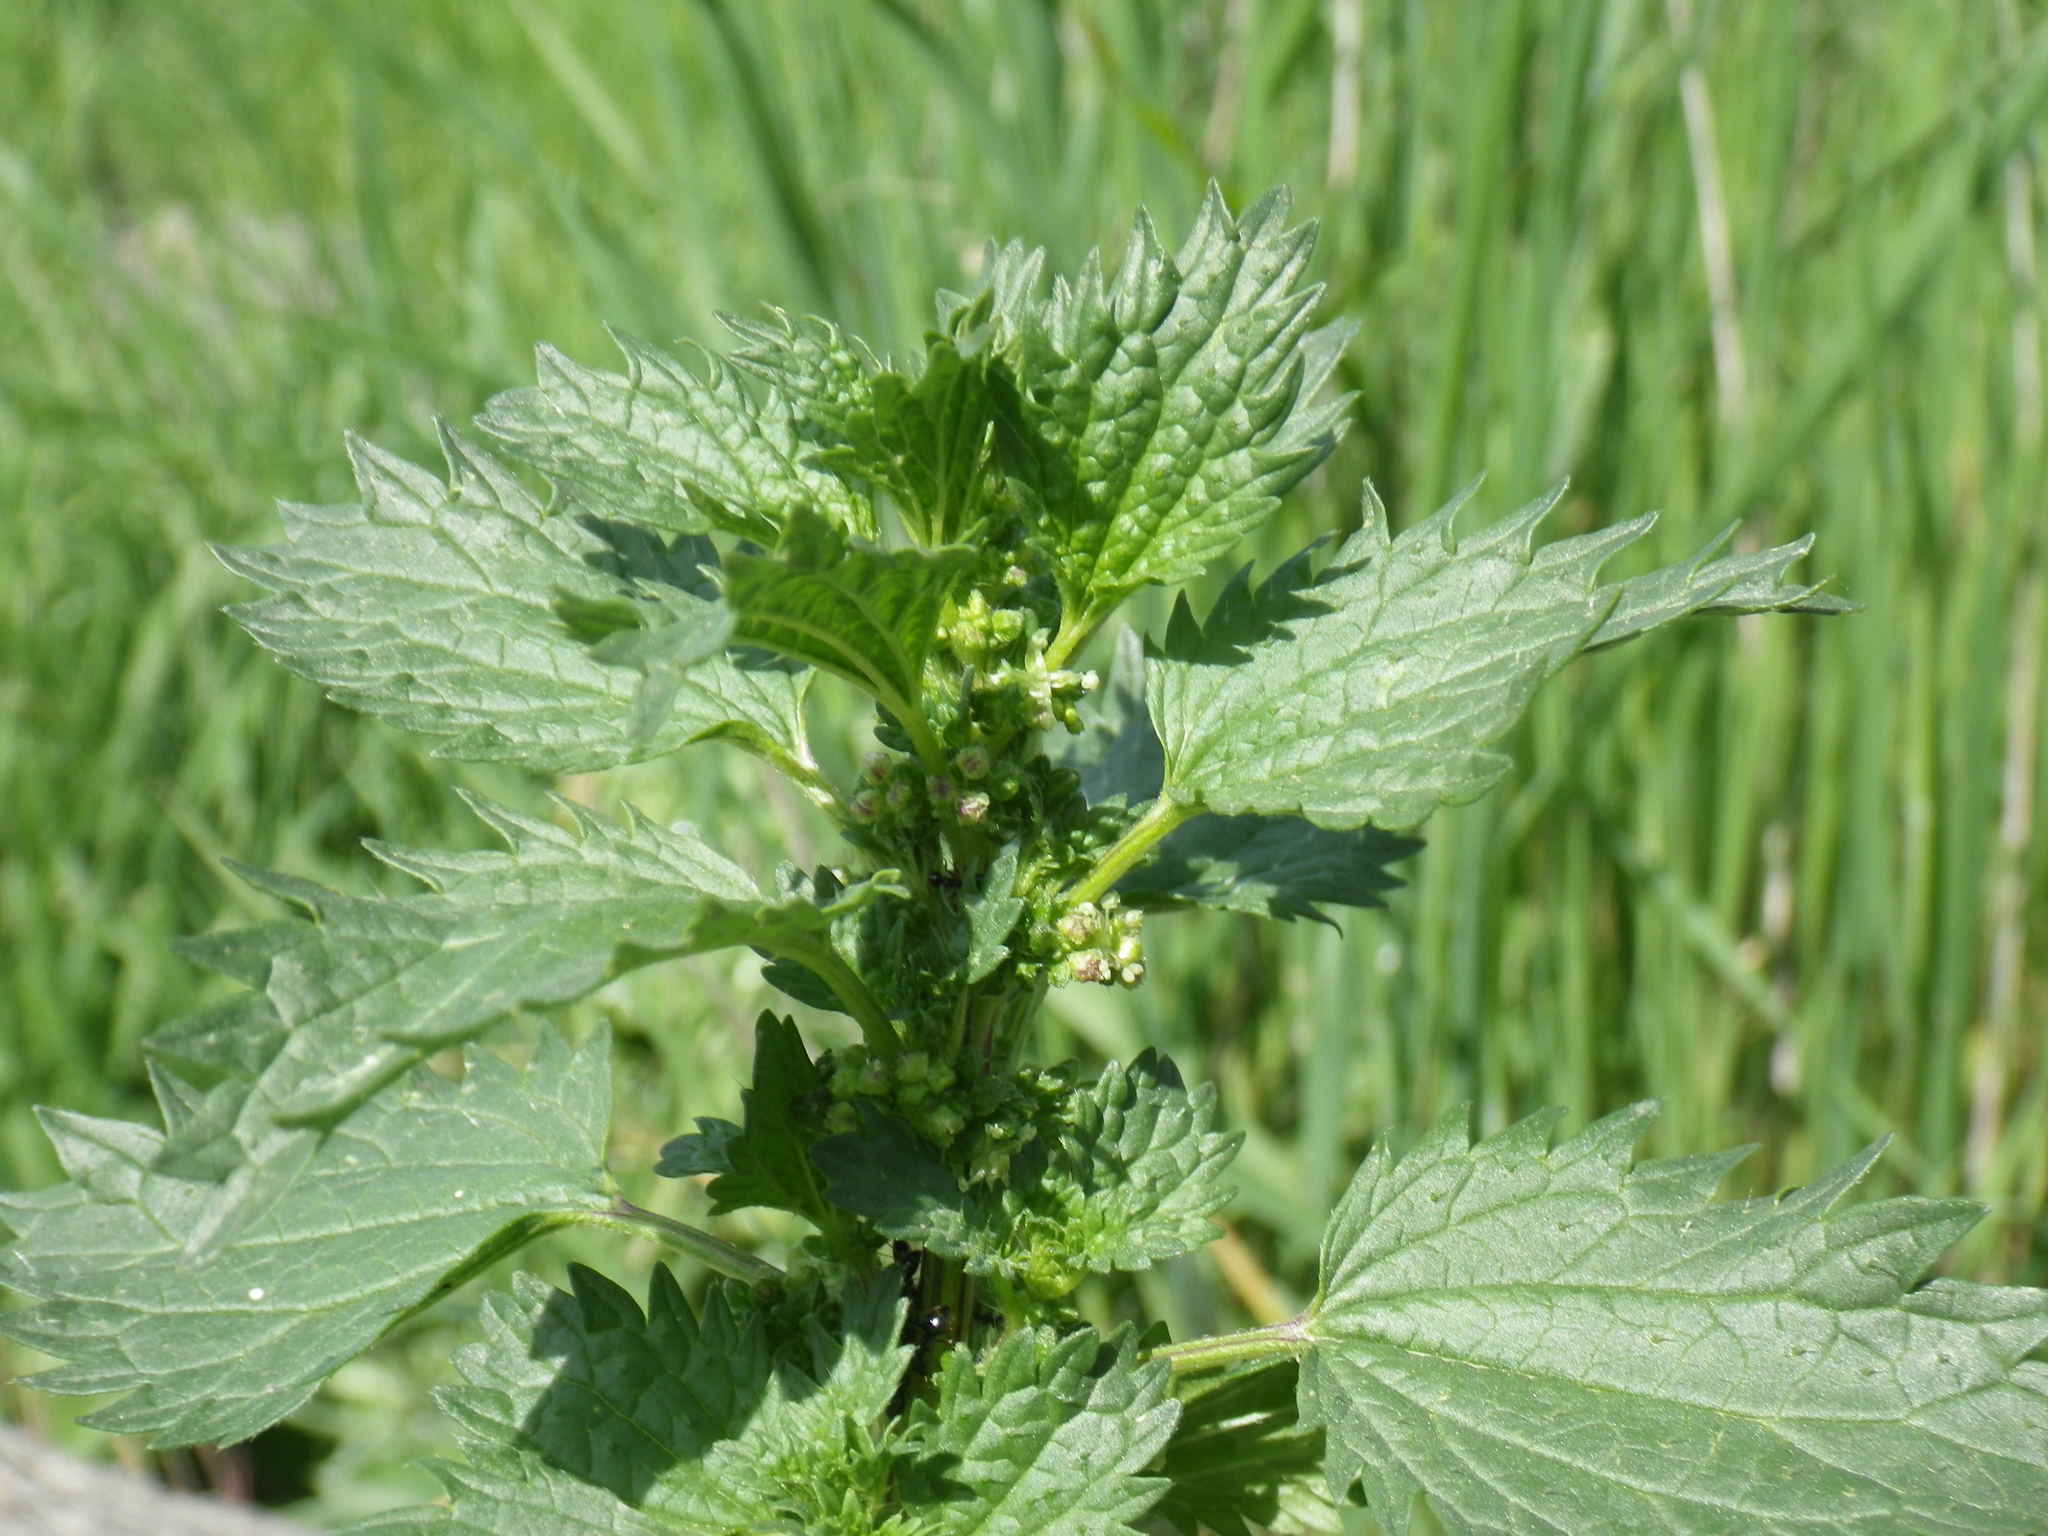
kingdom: Plantae
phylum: Tracheophyta
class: Magnoliopsida
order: Rosales
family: Urticaceae
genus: Urtica
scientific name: Urtica urens
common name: Dwarf nettle
